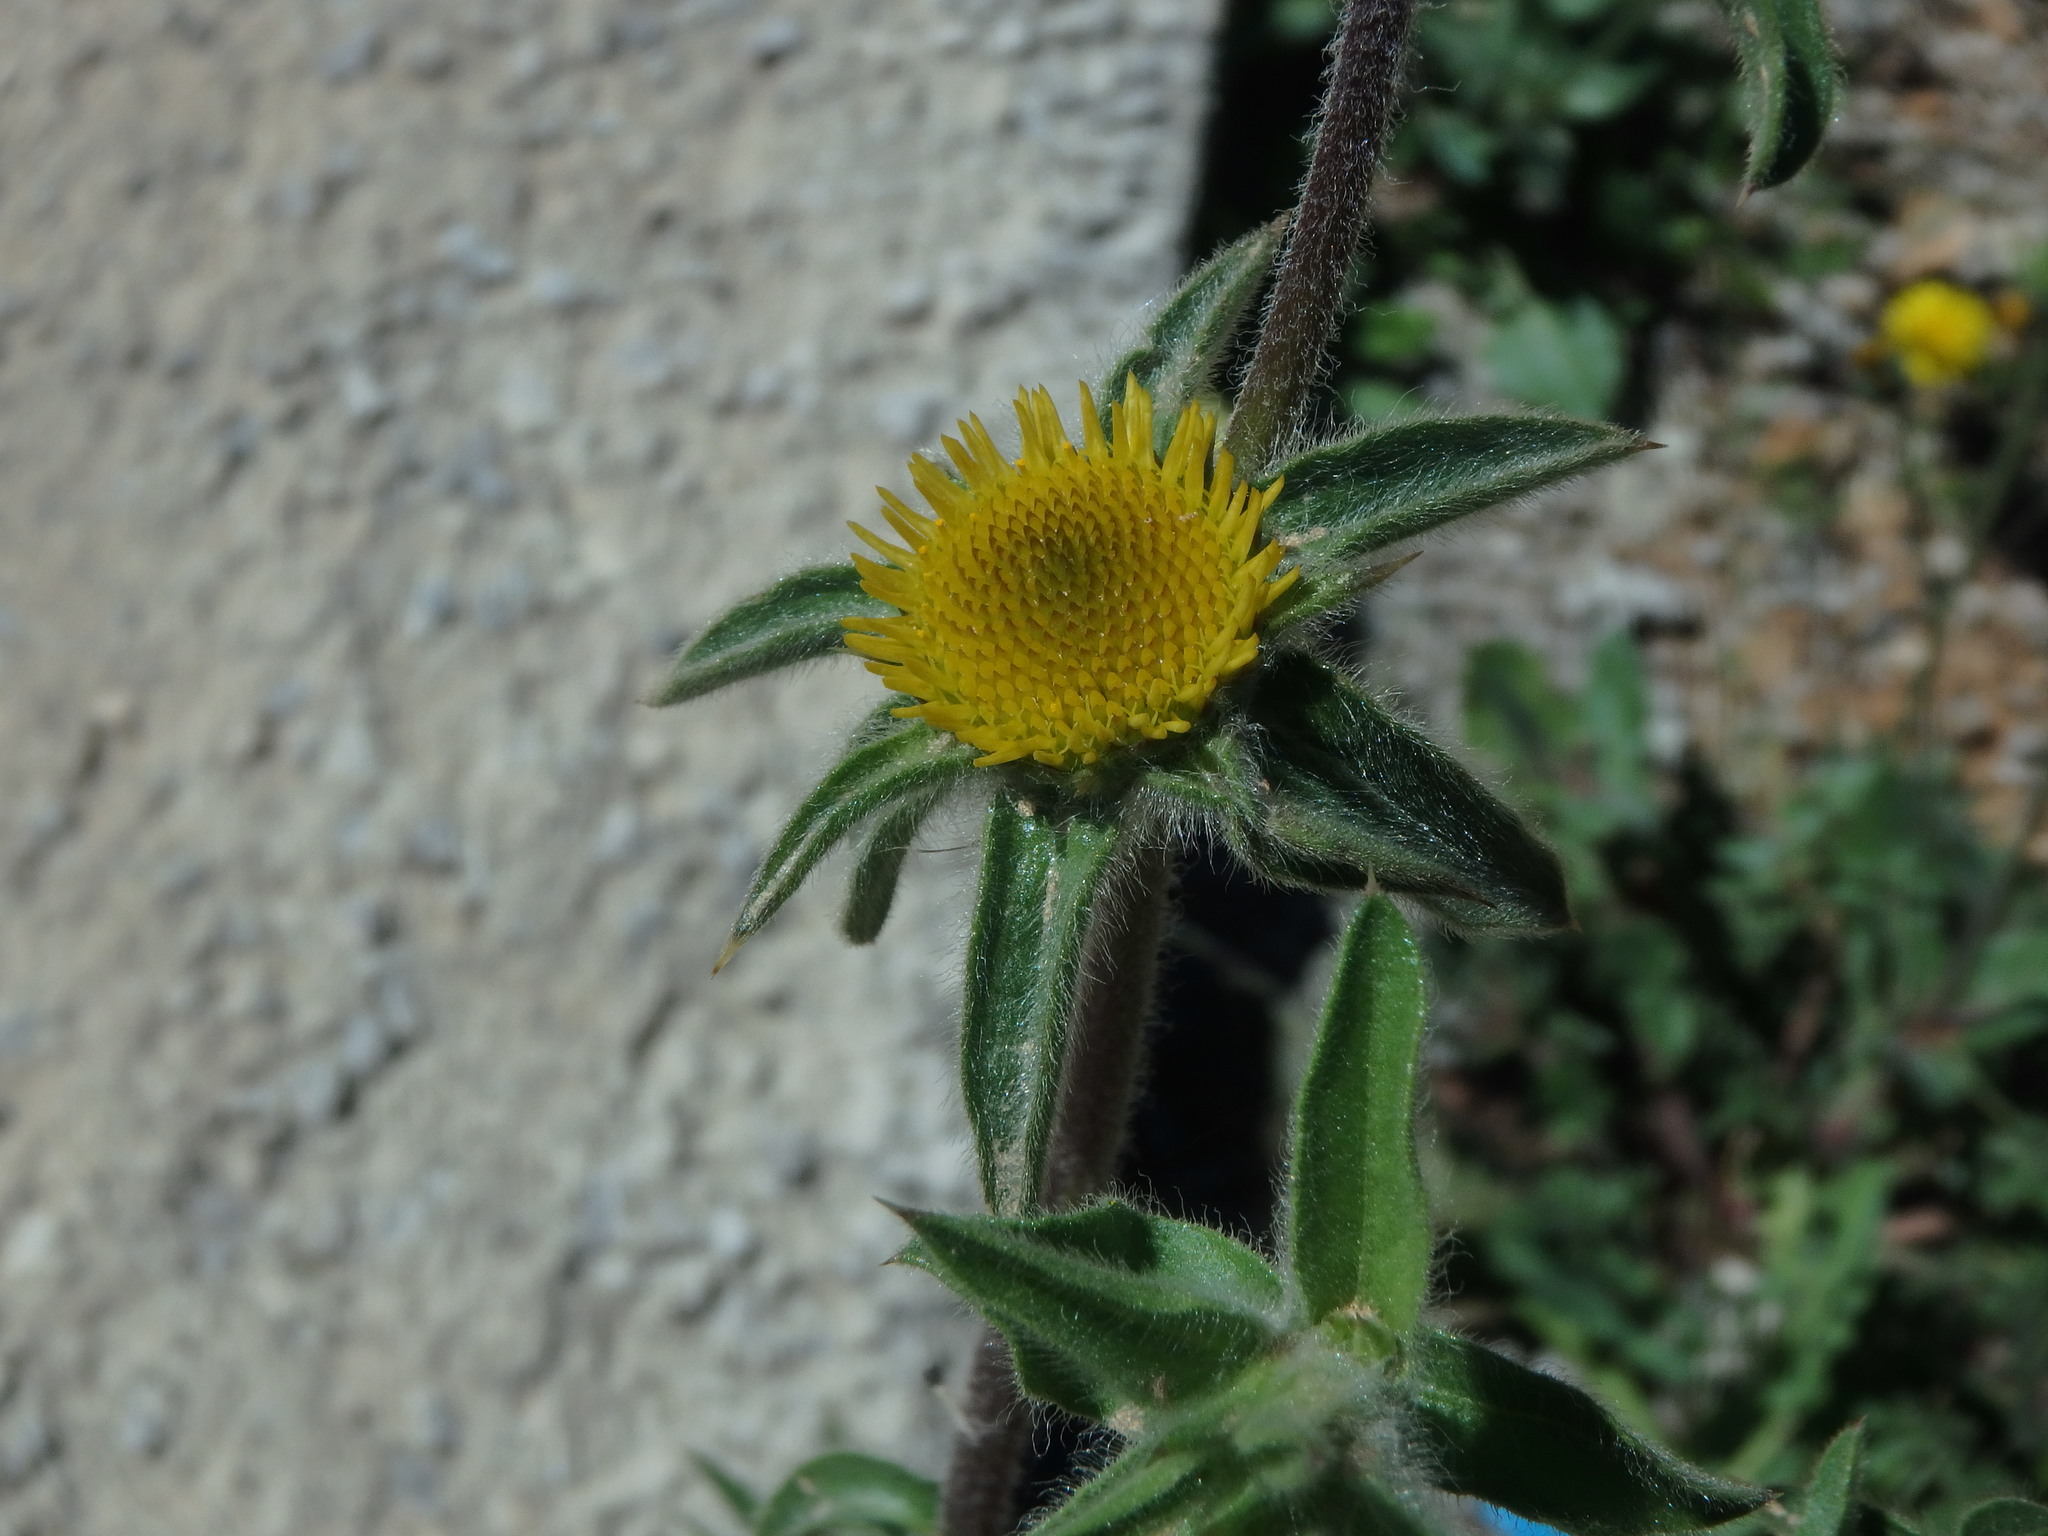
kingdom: Plantae
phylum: Tracheophyta
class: Magnoliopsida
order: Asterales
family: Asteraceae
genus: Pallenis
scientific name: Pallenis spinosa
